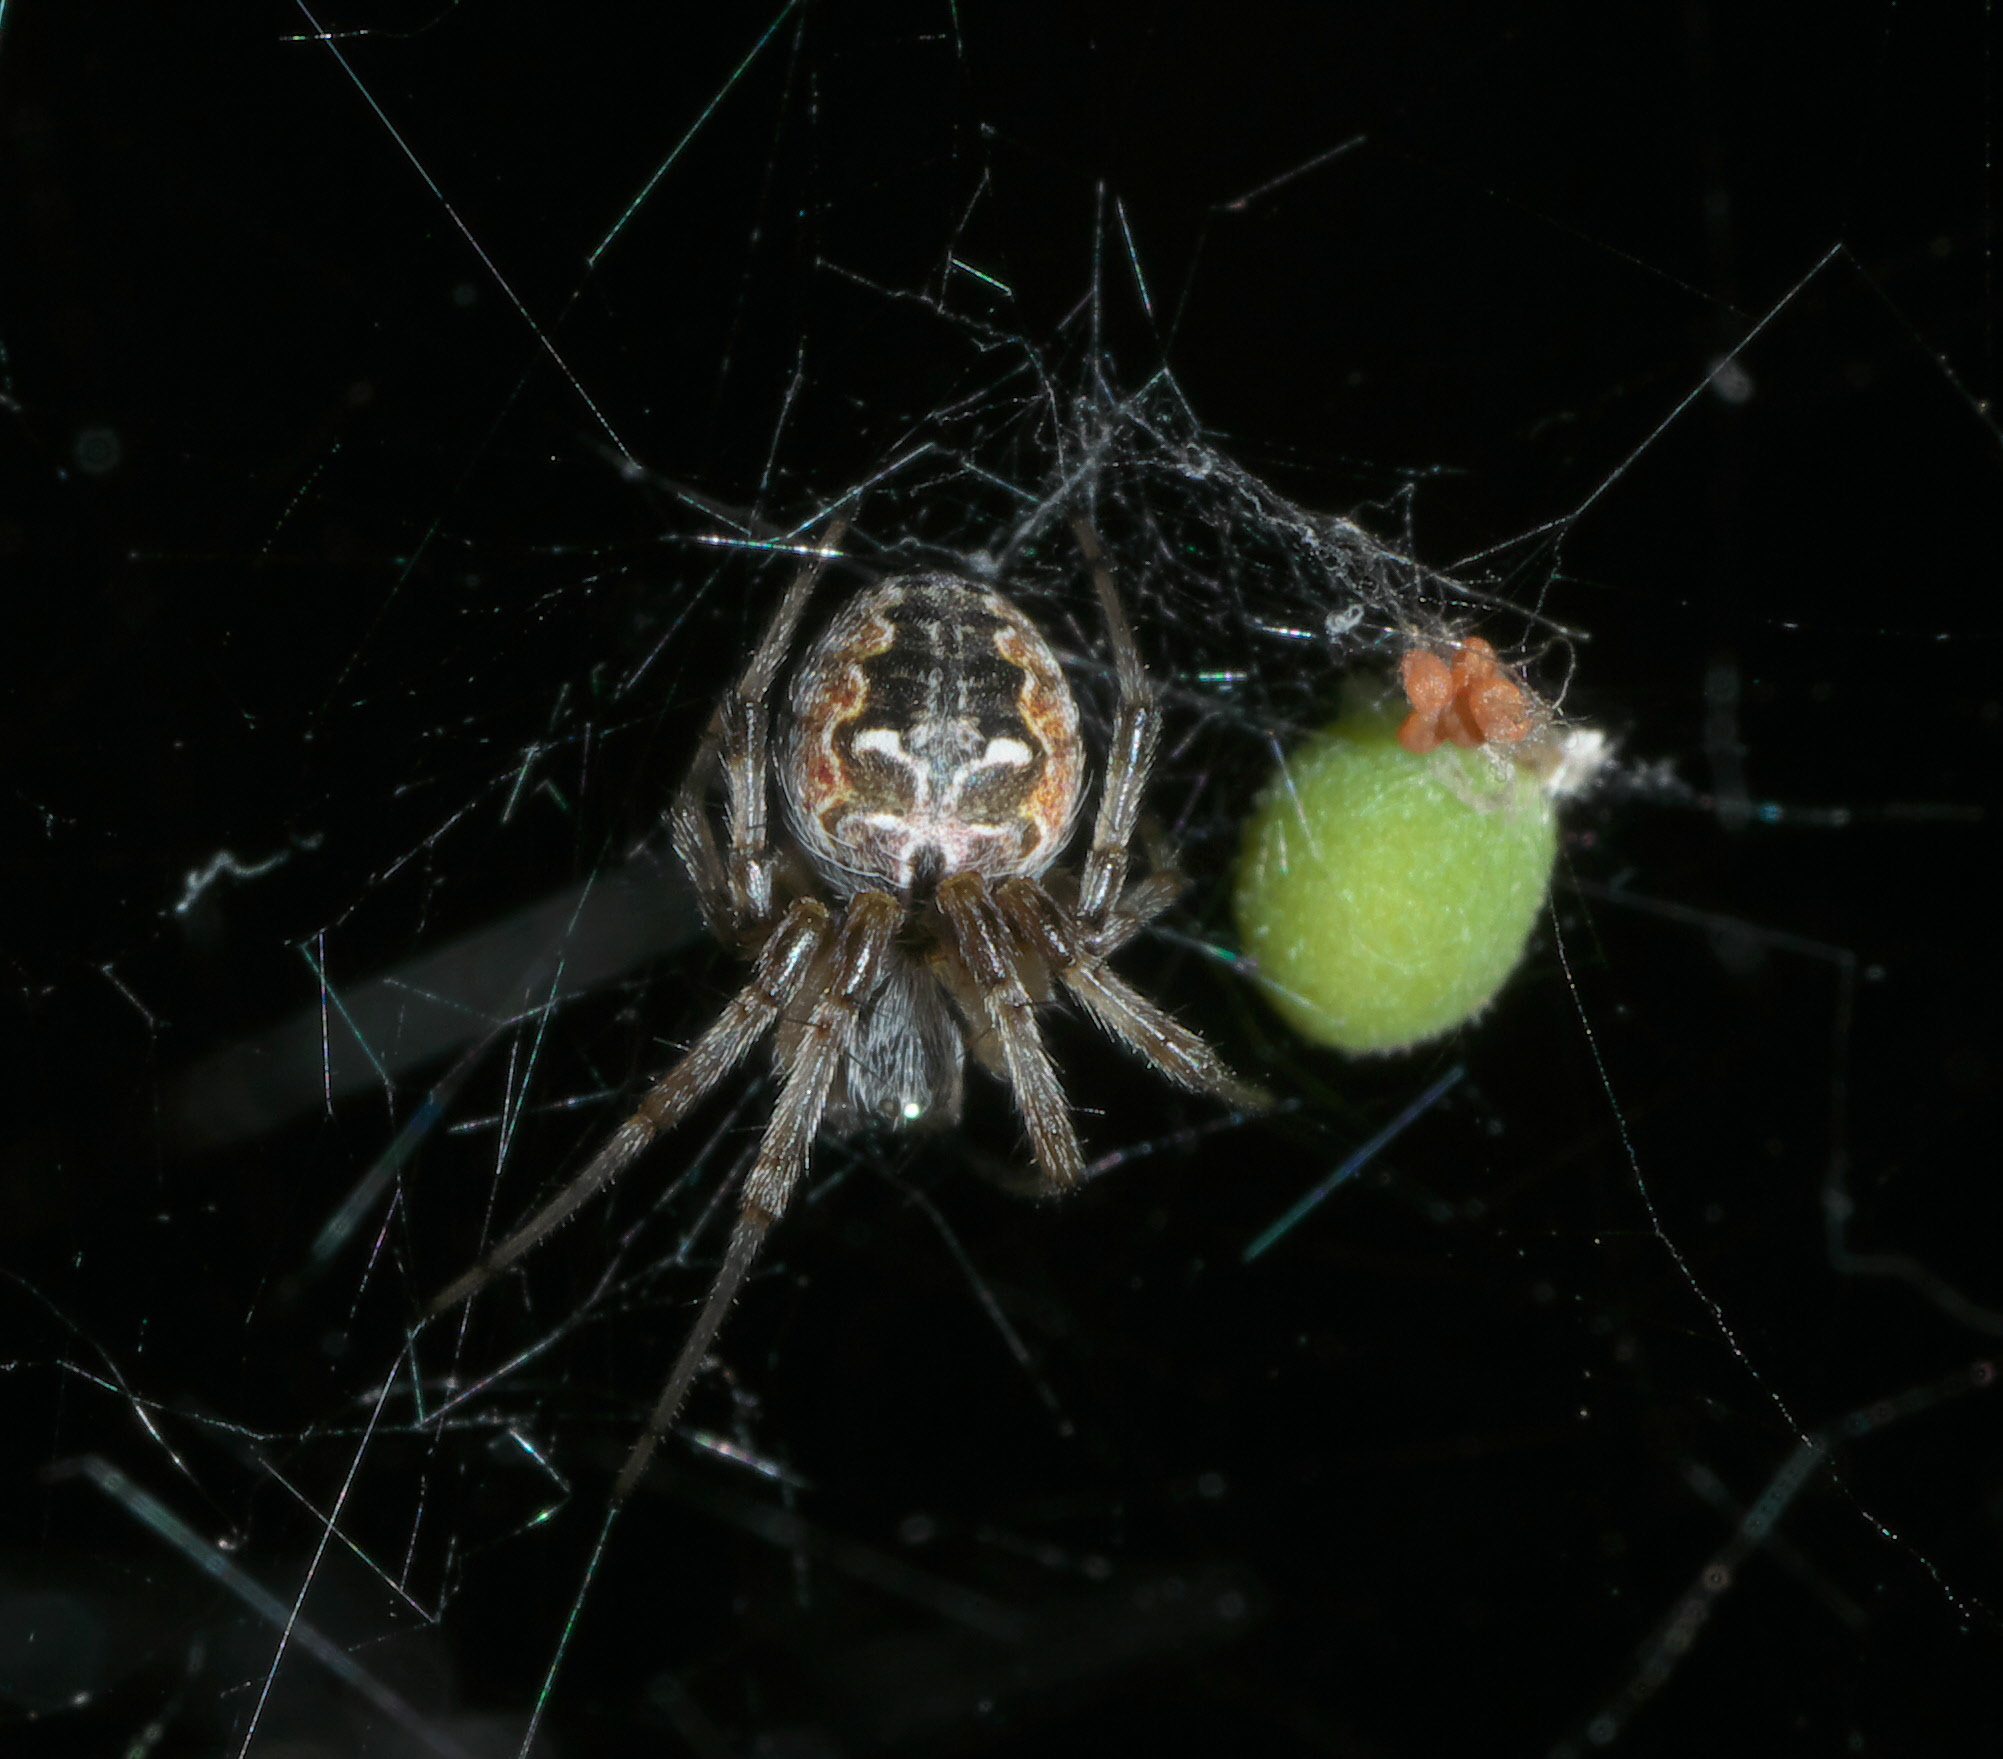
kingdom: Animalia
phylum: Arthropoda
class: Arachnida
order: Araneae
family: Araneidae
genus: Metepeira
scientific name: Metepeira labyrinthea
